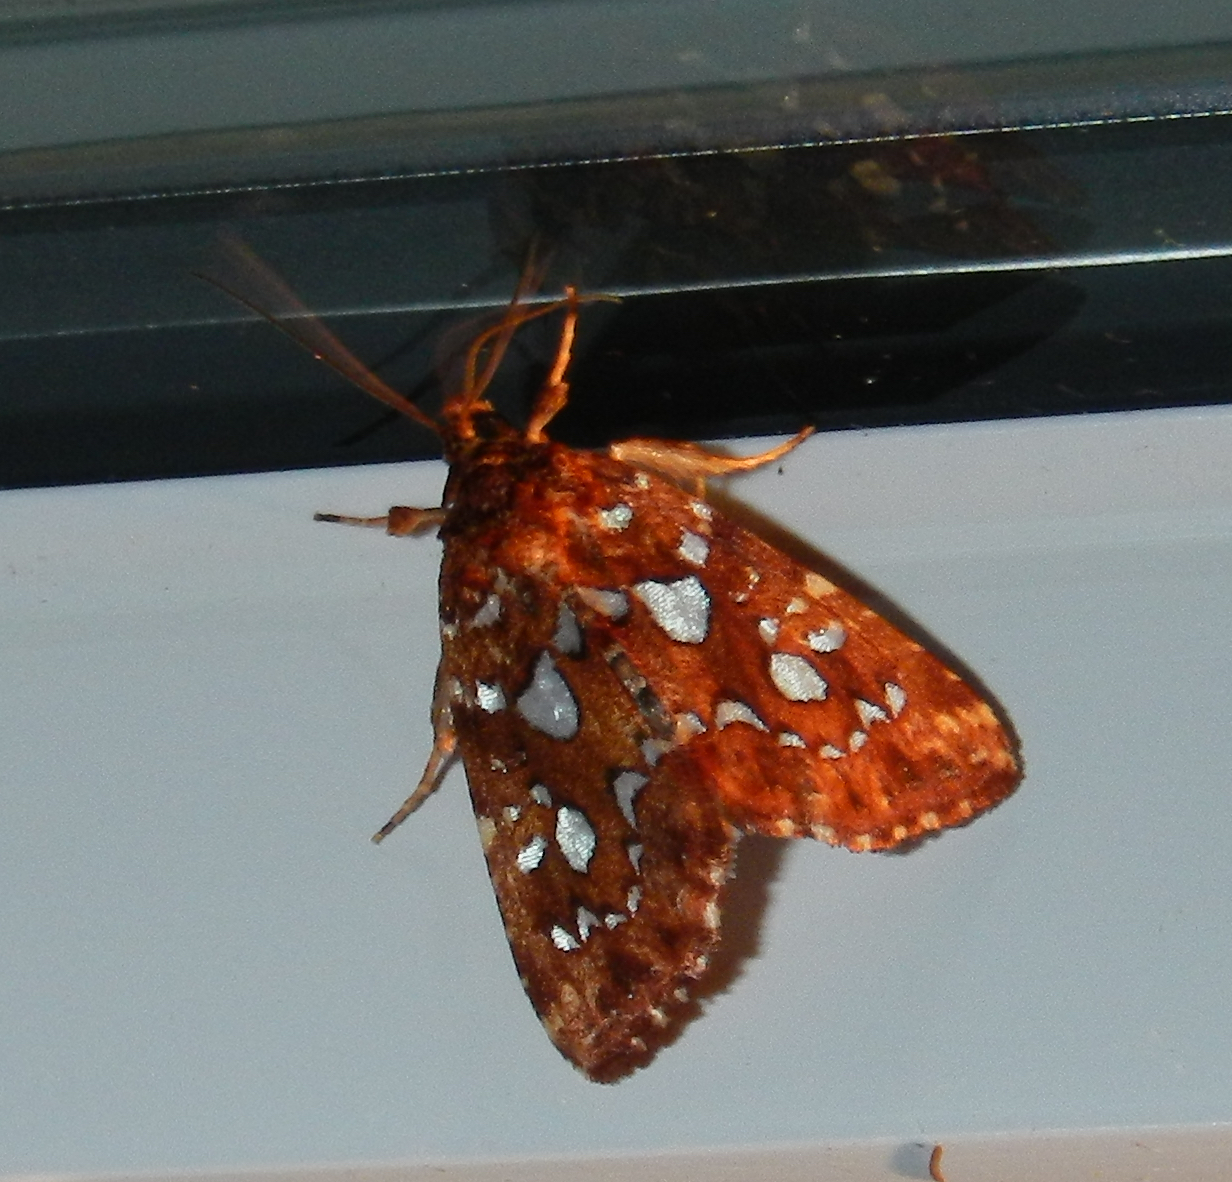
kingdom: Animalia
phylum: Arthropoda
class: Insecta
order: Lepidoptera
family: Noctuidae
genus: Callopistria
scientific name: Callopistria cordata
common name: Silver-spotted fern moth
